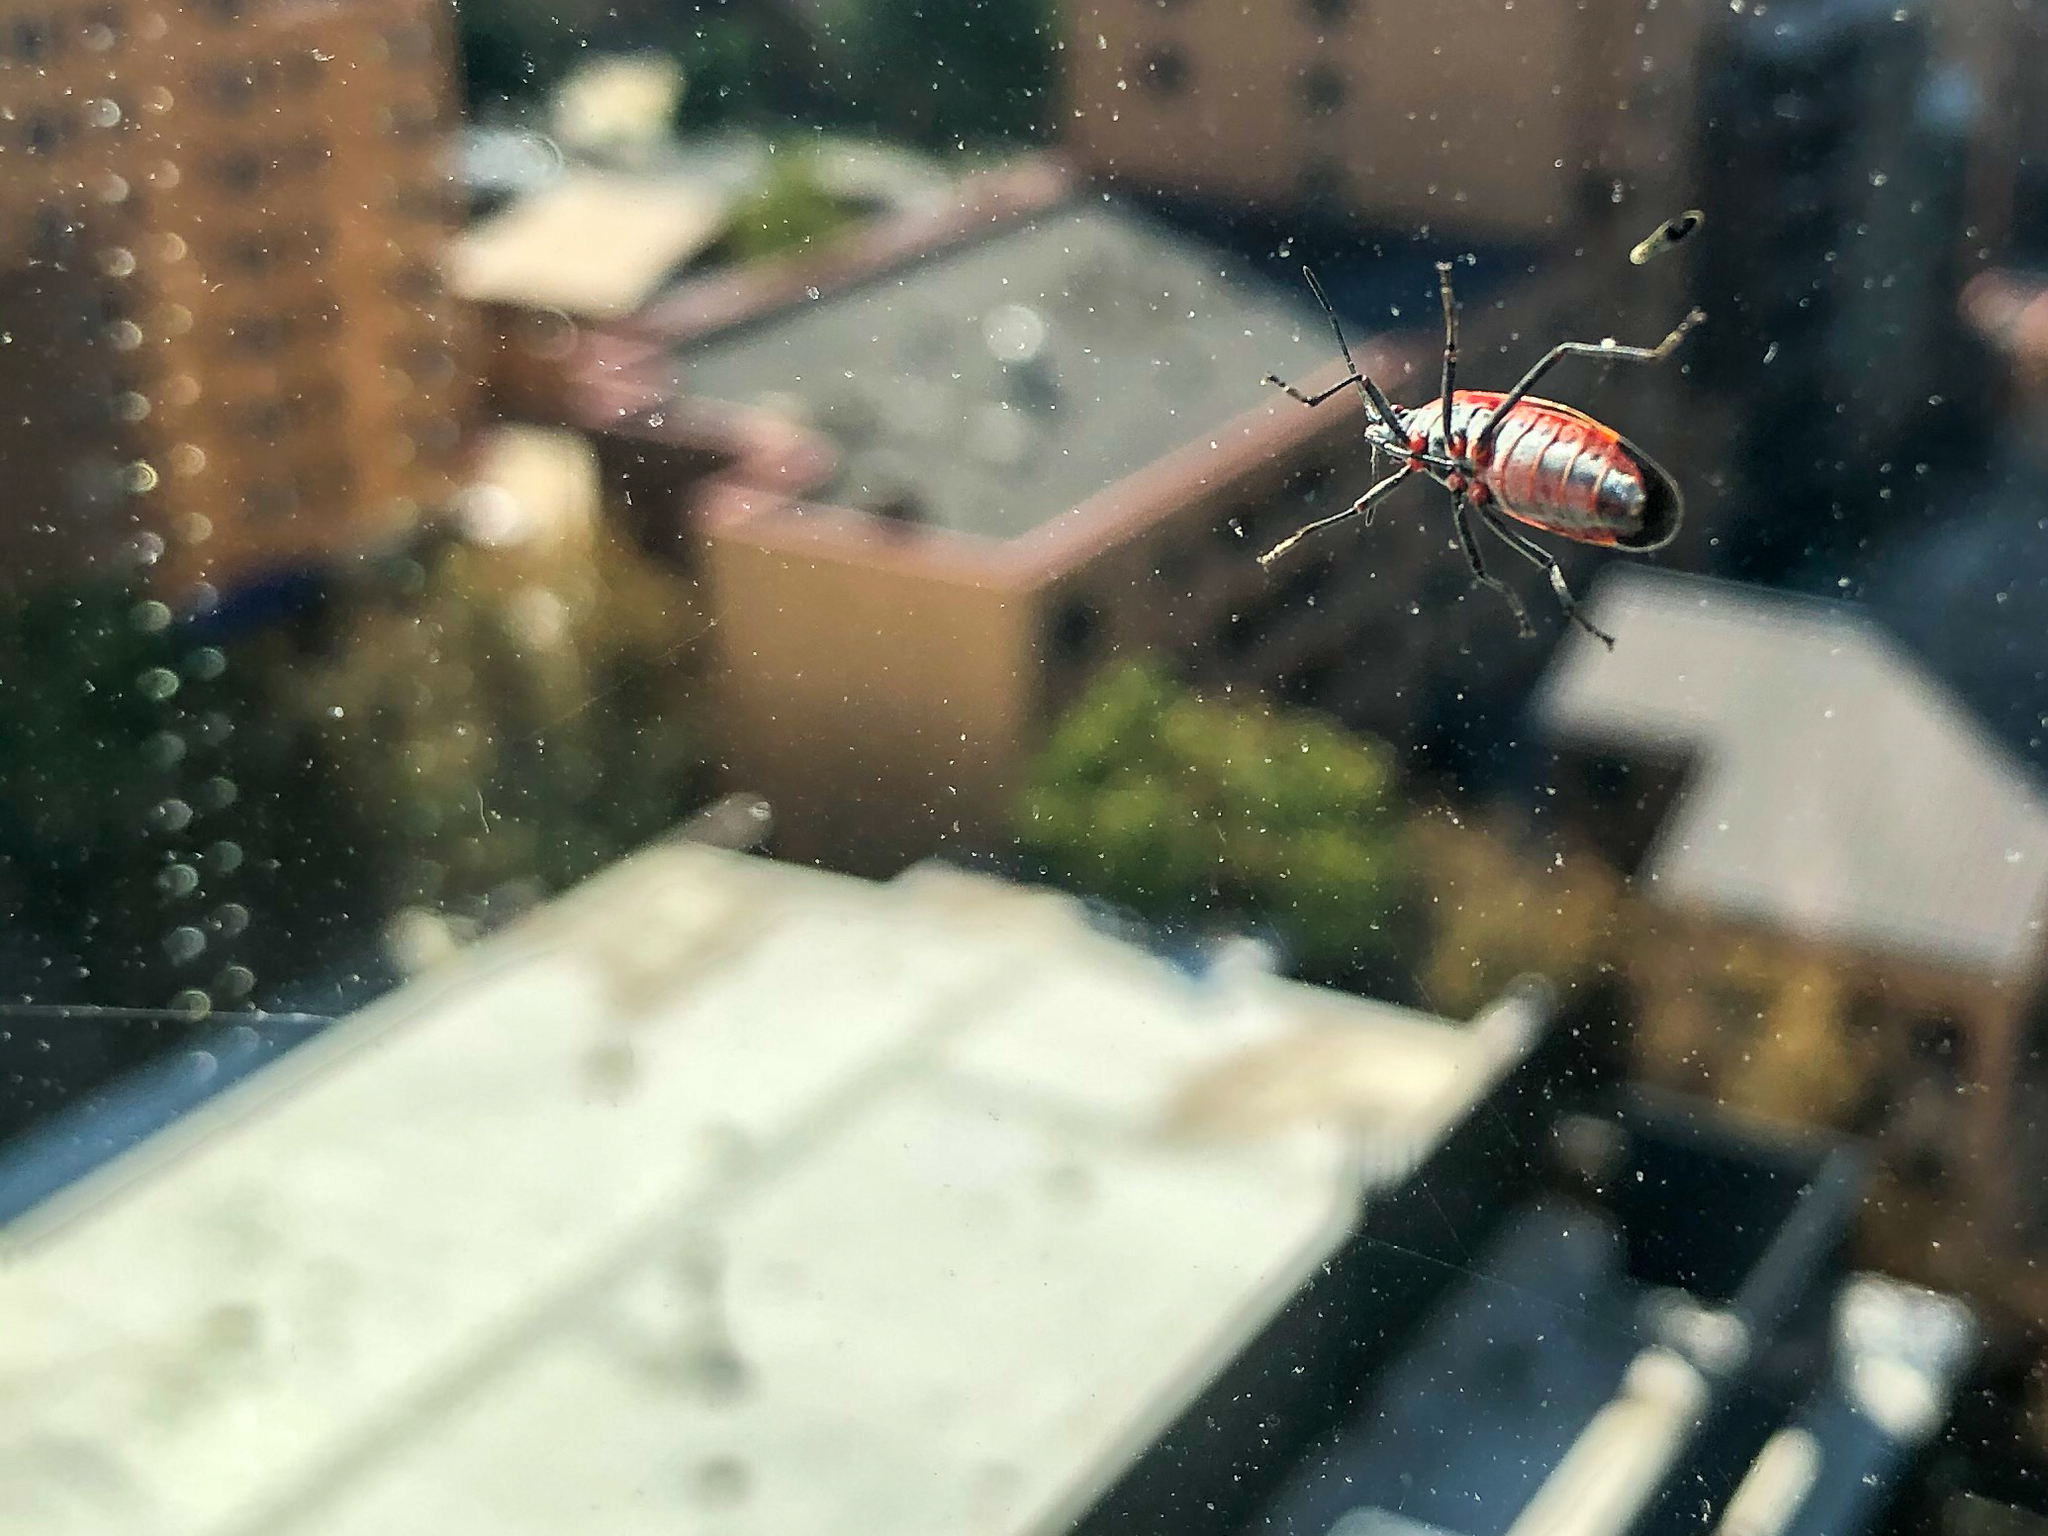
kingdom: Animalia
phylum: Arthropoda
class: Insecta
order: Hemiptera
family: Rhopalidae
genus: Boisea
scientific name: Boisea trivittata
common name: Boxelder bug
